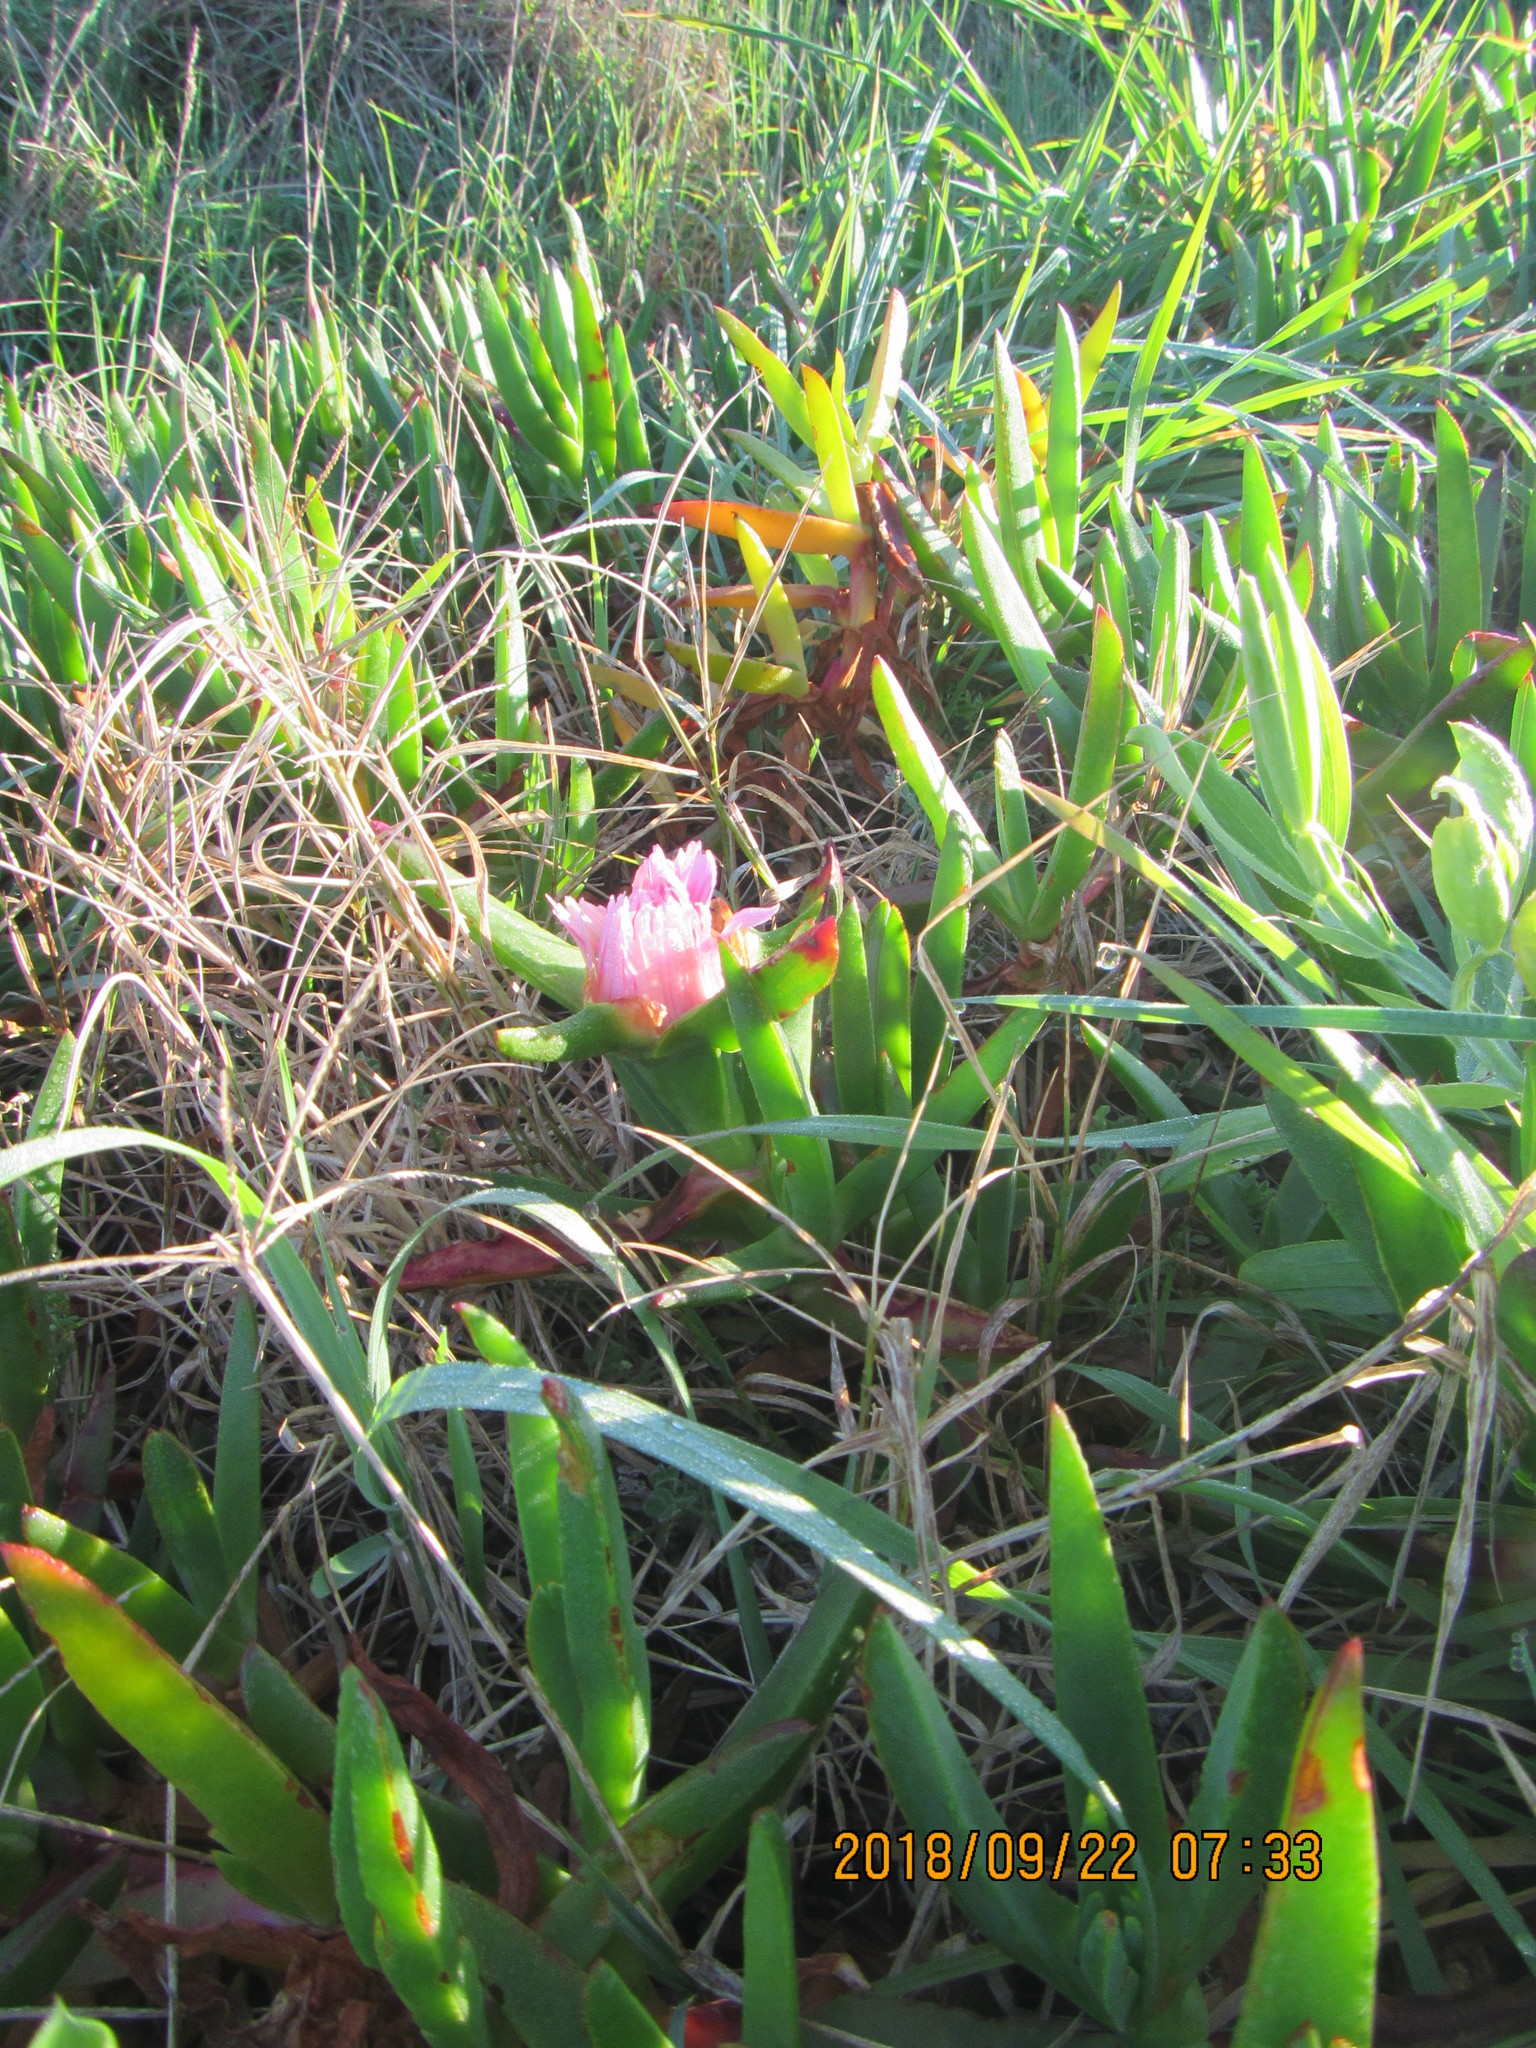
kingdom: Plantae
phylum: Tracheophyta
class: Magnoliopsida
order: Caryophyllales
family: Aizoaceae
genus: Carpobrotus
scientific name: Carpobrotus edulis
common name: Hottentot-fig
